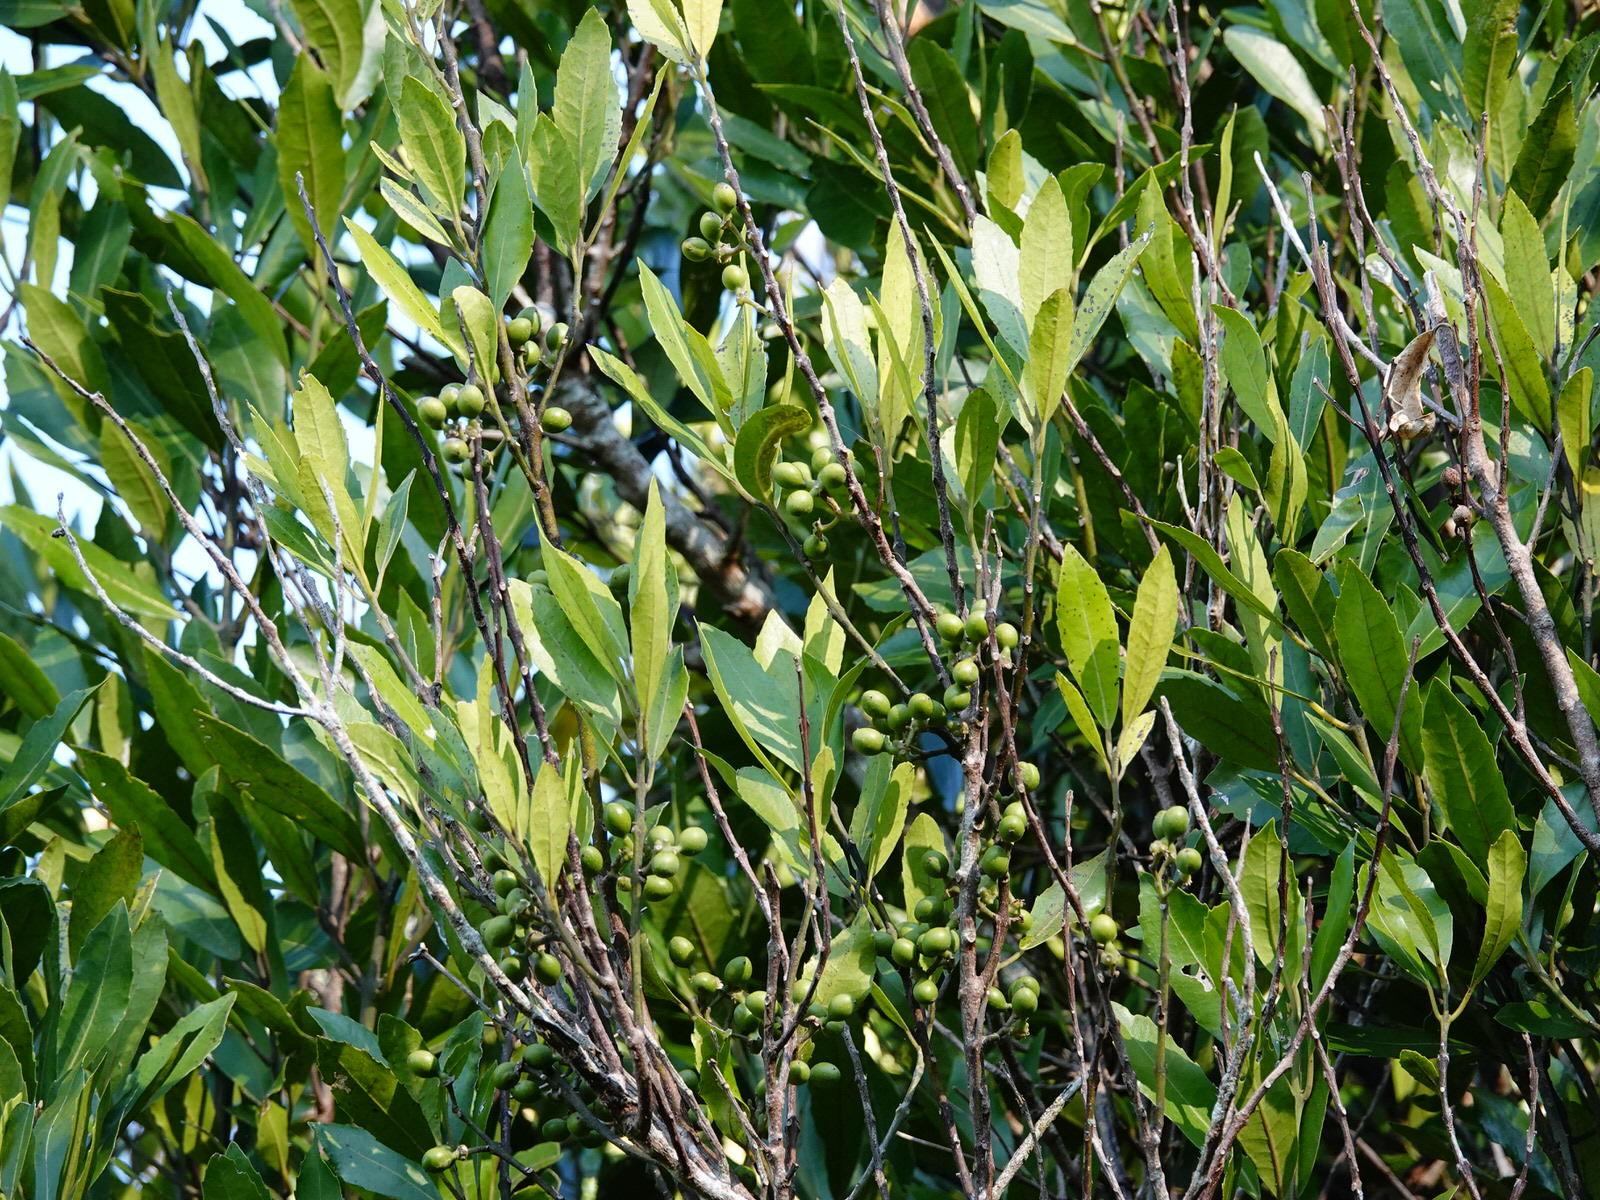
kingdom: Plantae
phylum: Tracheophyta
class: Magnoliopsida
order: Laurales
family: Monimiaceae
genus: Hedycarya
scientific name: Hedycarya arborea
